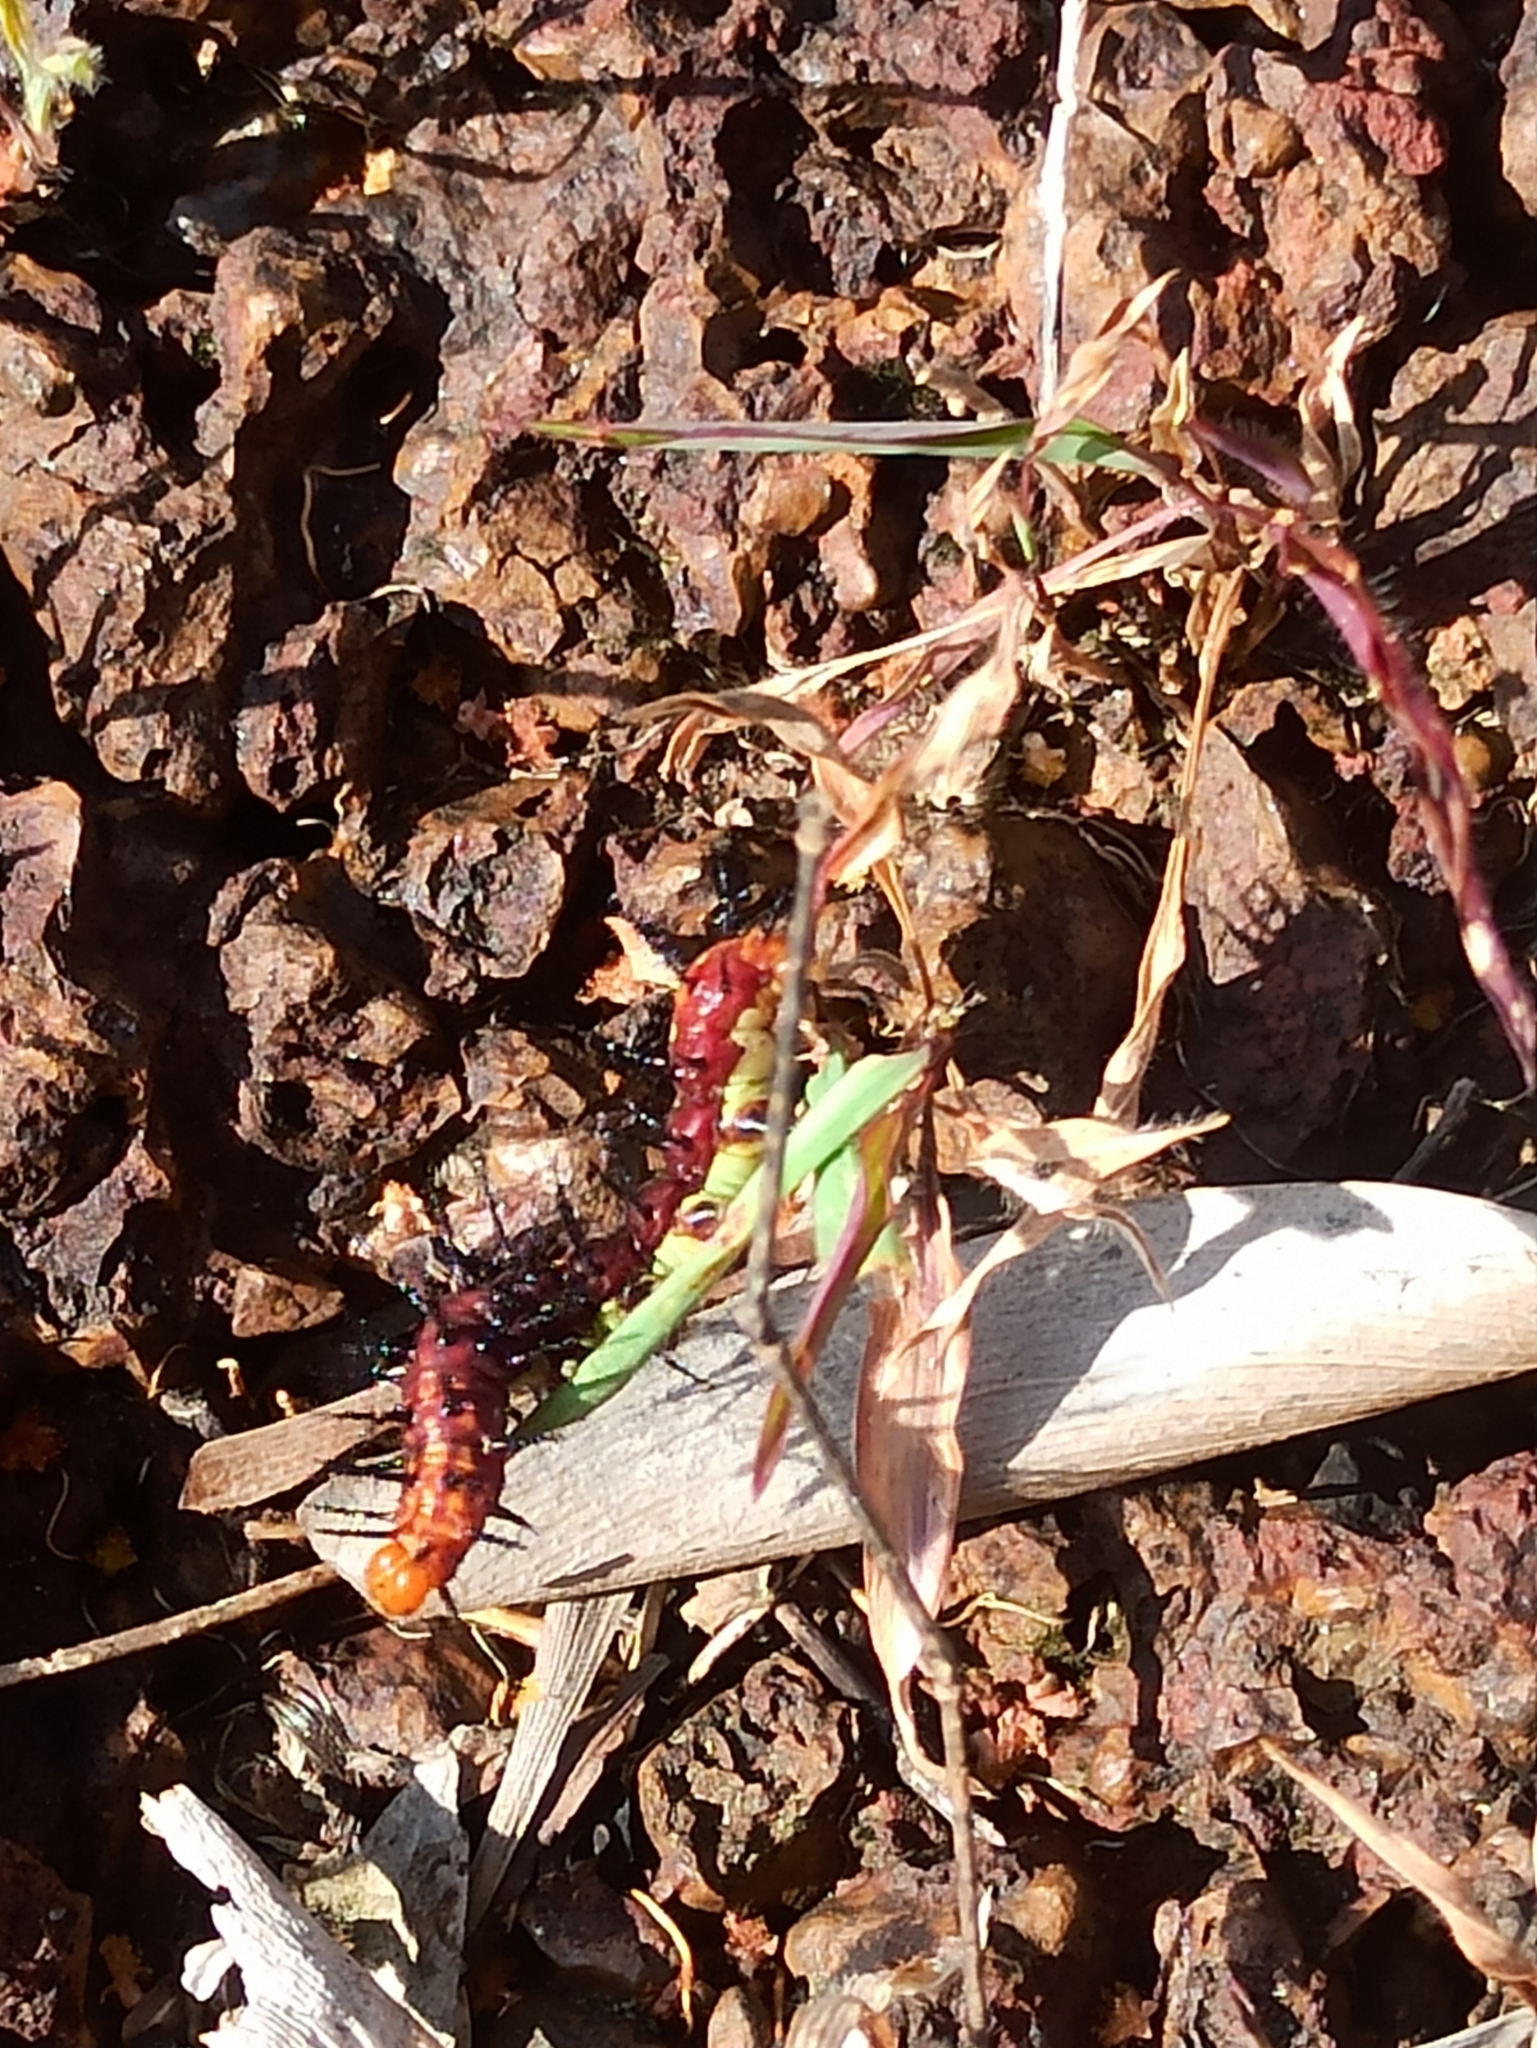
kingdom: Animalia
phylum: Arthropoda
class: Insecta
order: Lepidoptera
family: Nymphalidae
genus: Acraea
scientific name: Acraea terpsicore
